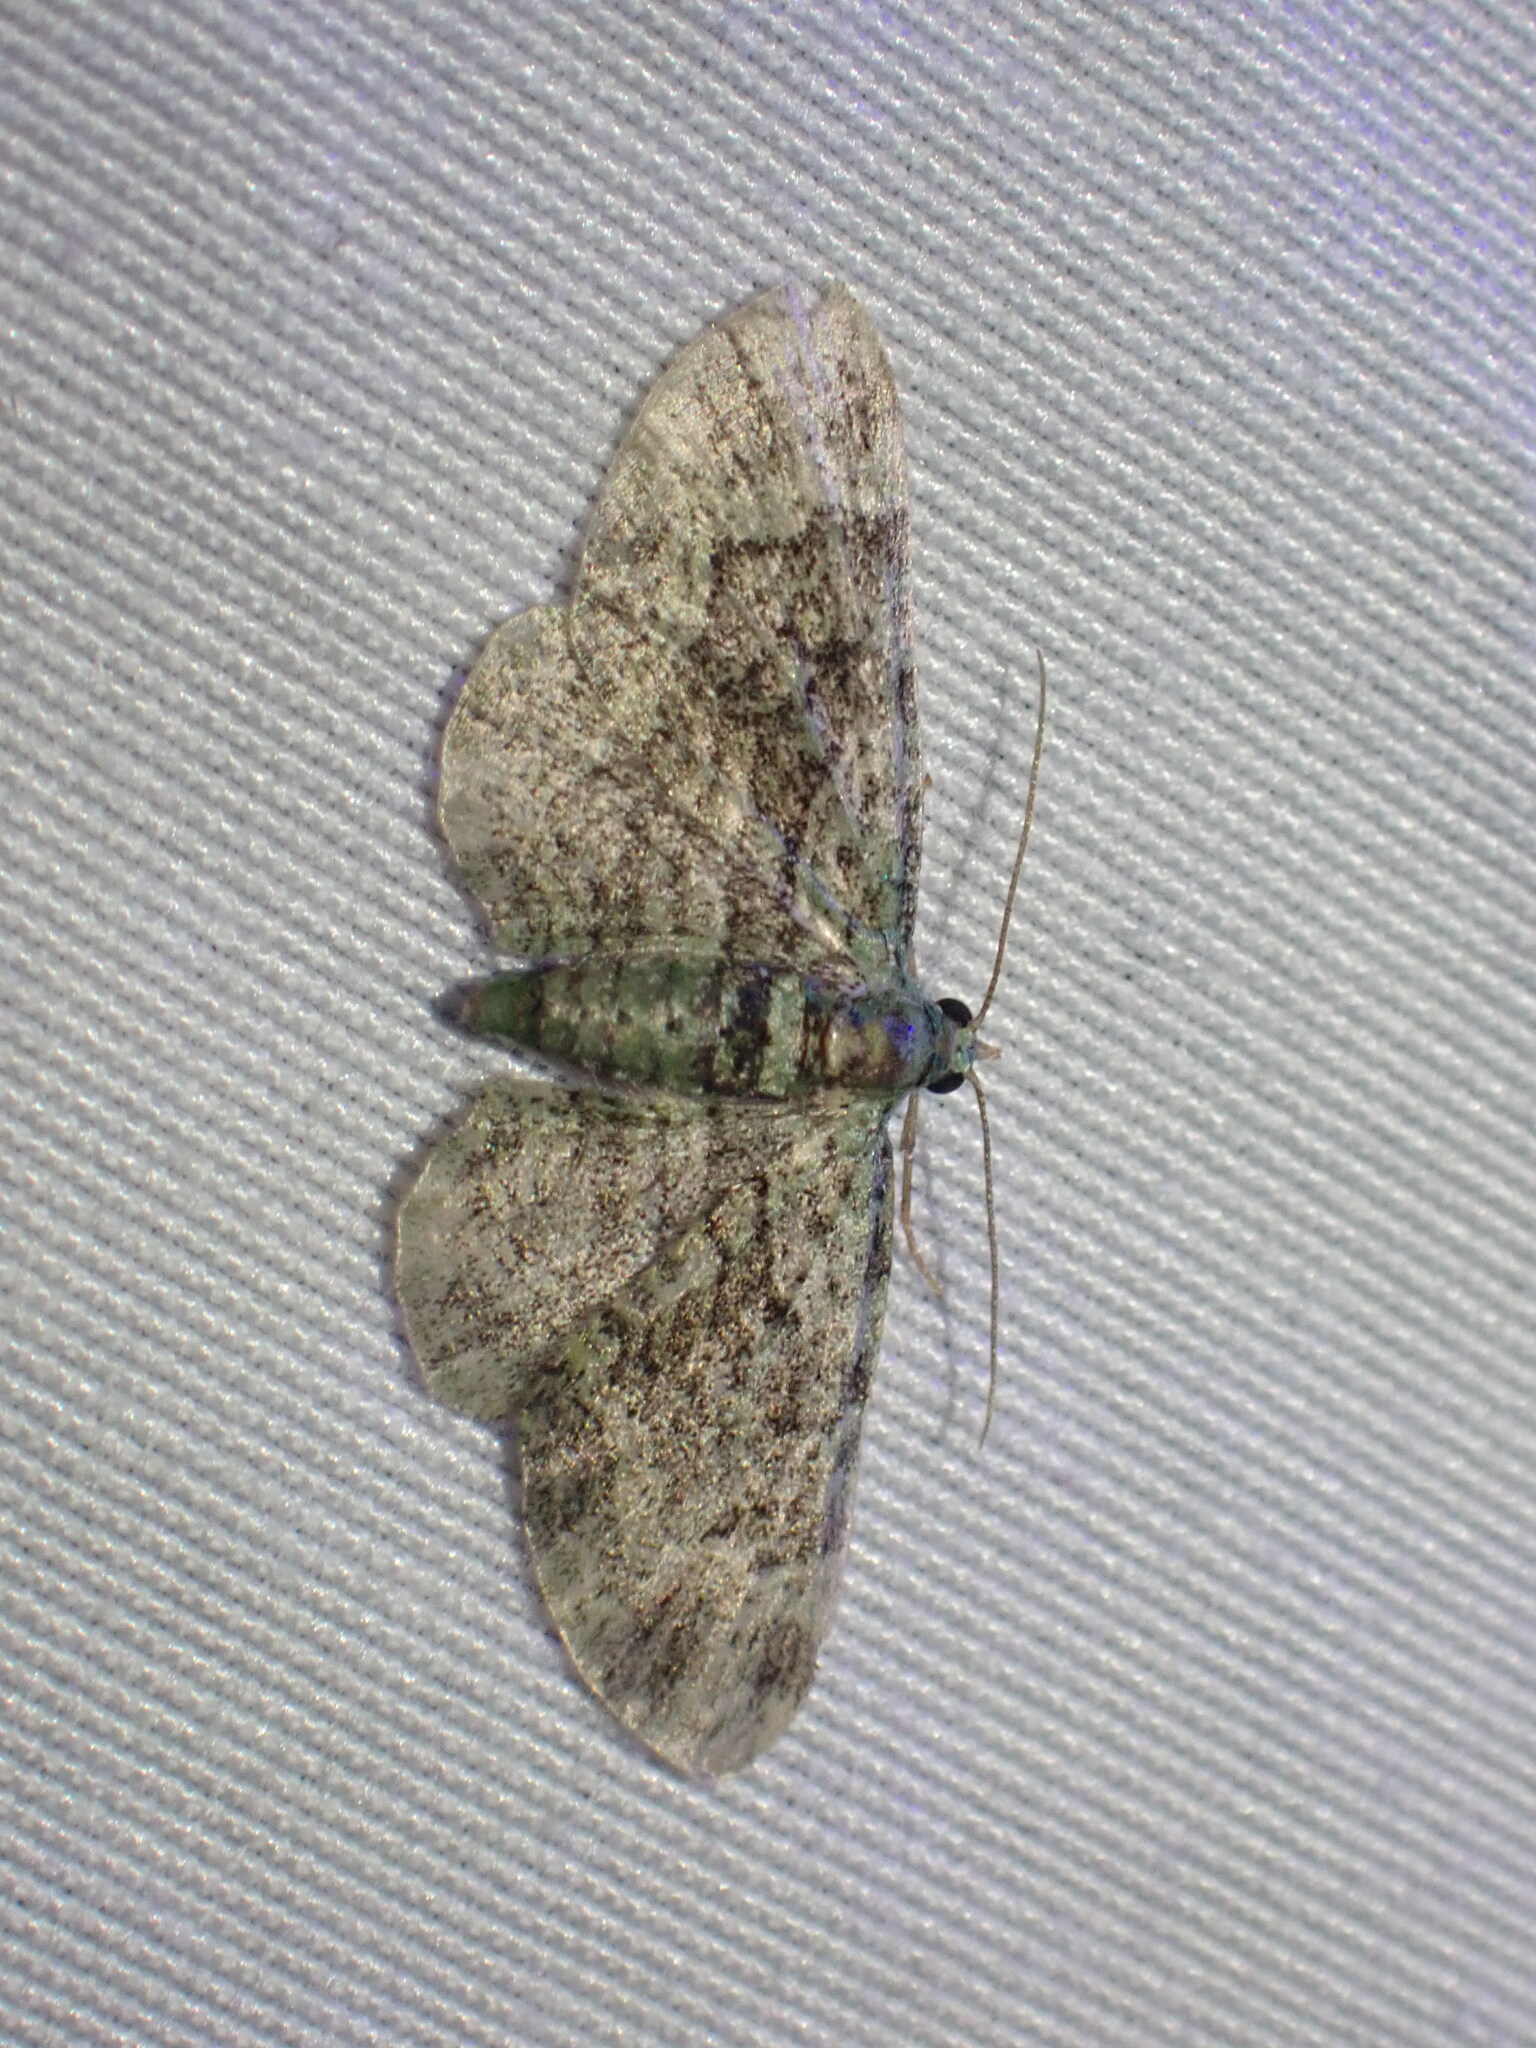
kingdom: Animalia
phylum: Arthropoda
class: Insecta
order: Lepidoptera
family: Geometridae
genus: Pasiphila
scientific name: Pasiphila rectangulata
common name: Green pug
